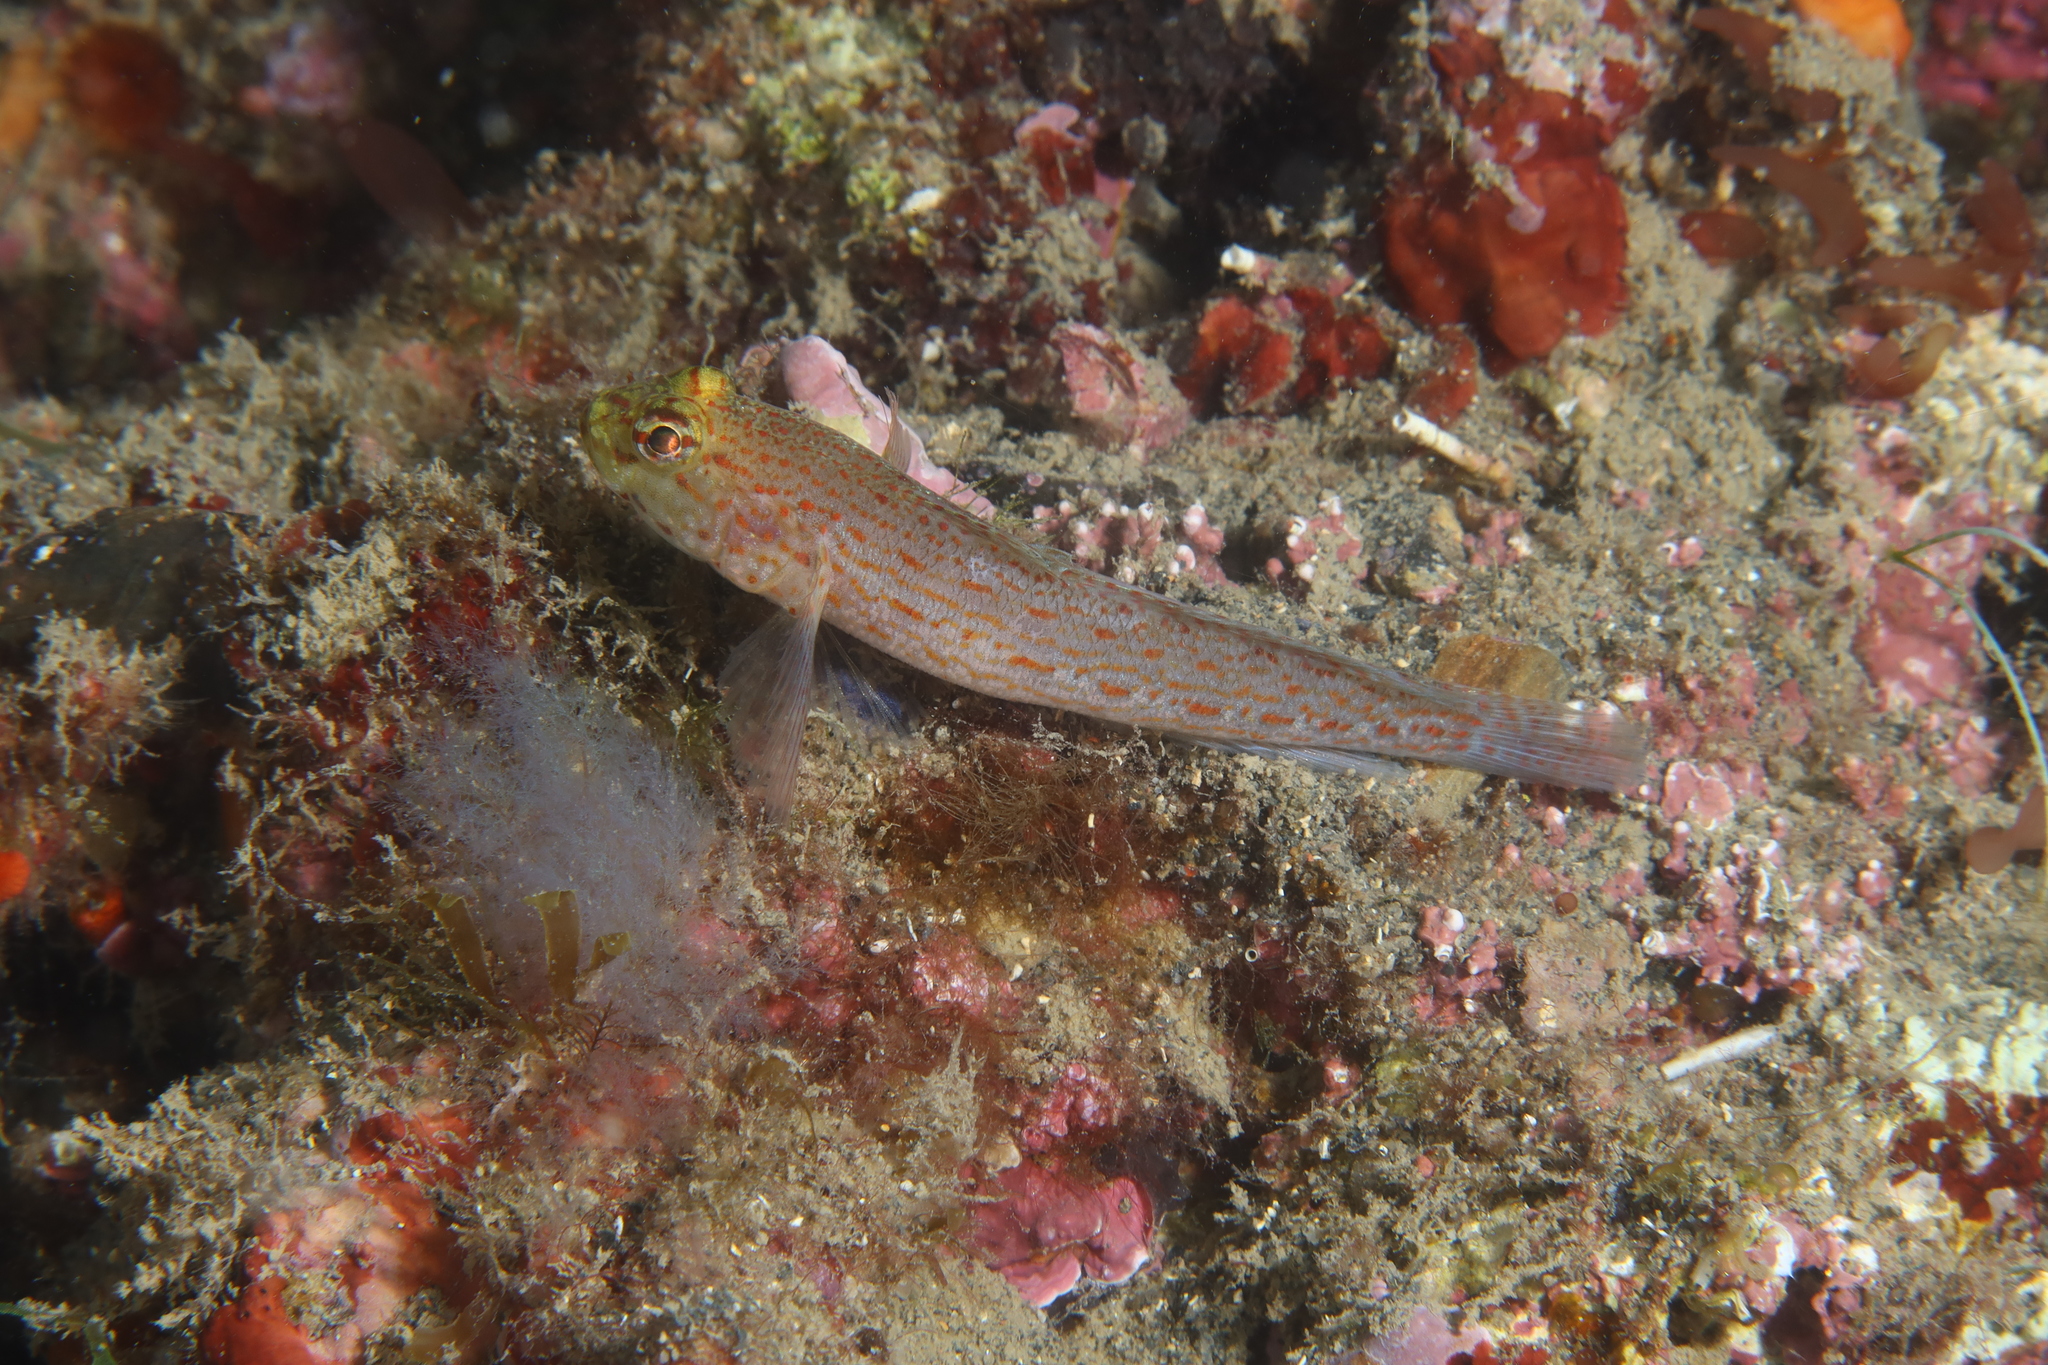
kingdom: Animalia
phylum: Chordata
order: Perciformes
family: Gobiidae
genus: Gobius
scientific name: Gobius xanthocephalus
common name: Golden goby
